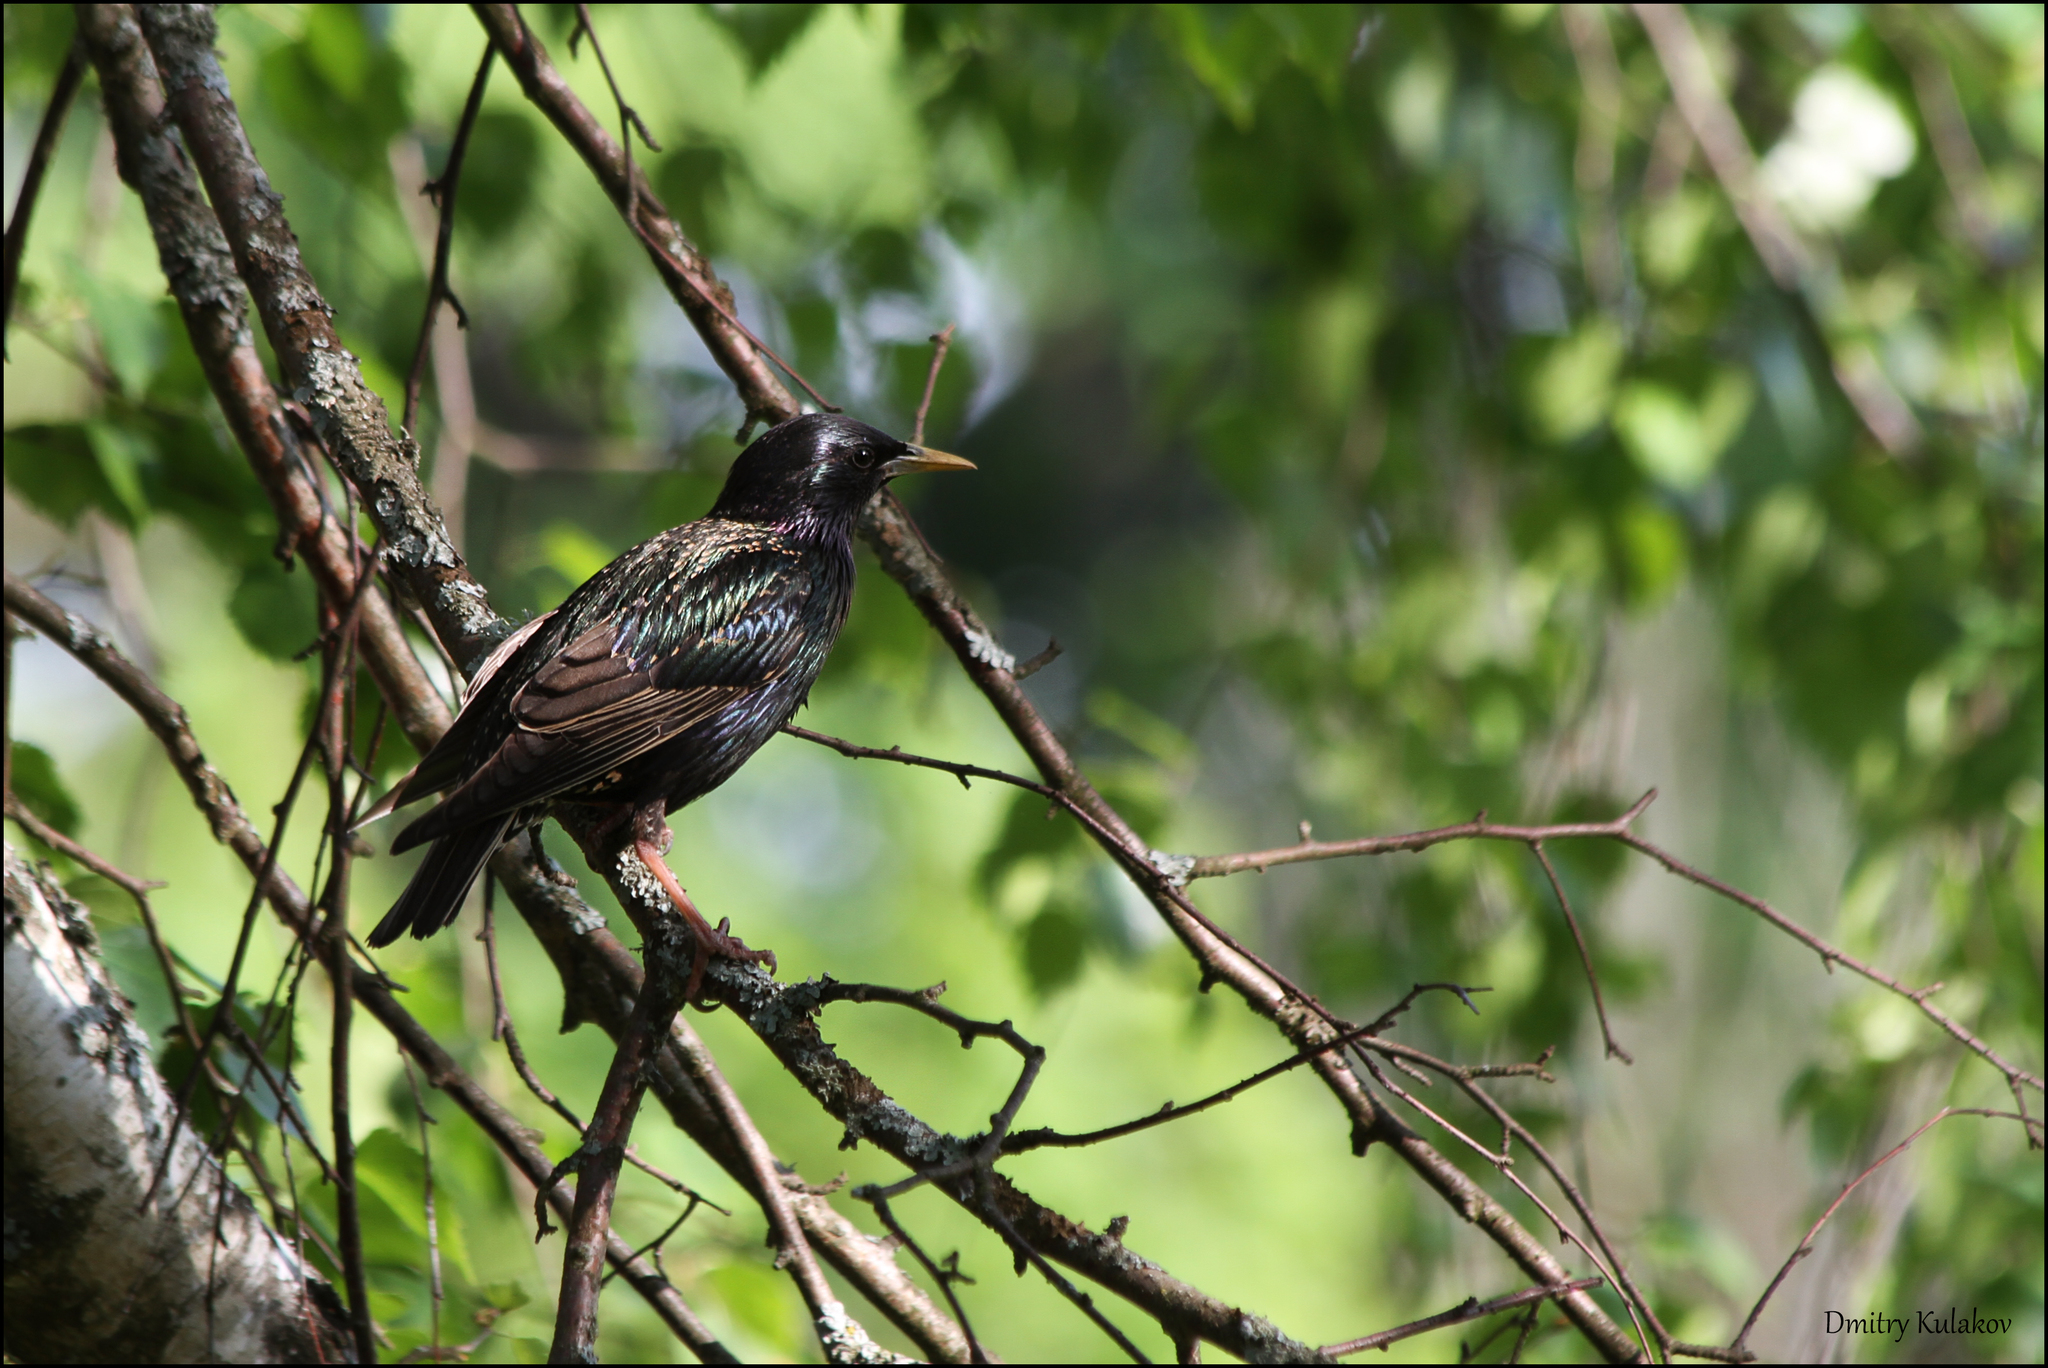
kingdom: Animalia
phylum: Chordata
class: Aves
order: Passeriformes
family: Sturnidae
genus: Sturnus
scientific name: Sturnus vulgaris
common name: Common starling
